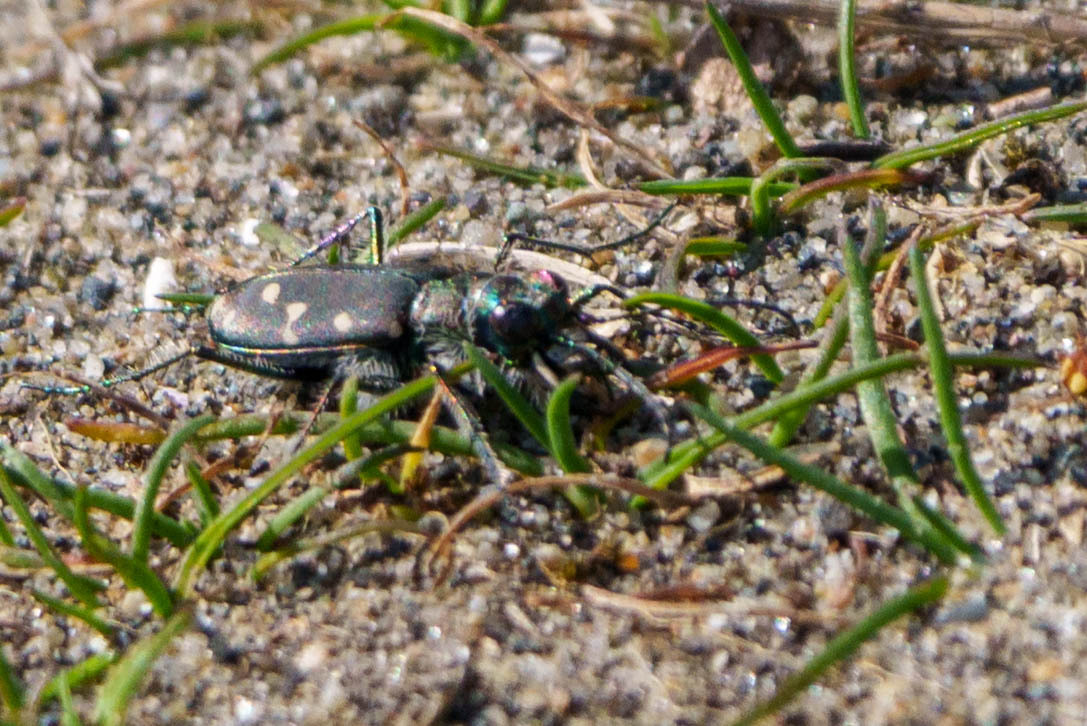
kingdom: Animalia
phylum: Arthropoda
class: Insecta
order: Coleoptera
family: Carabidae
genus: Cicindela
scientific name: Cicindela oregona
